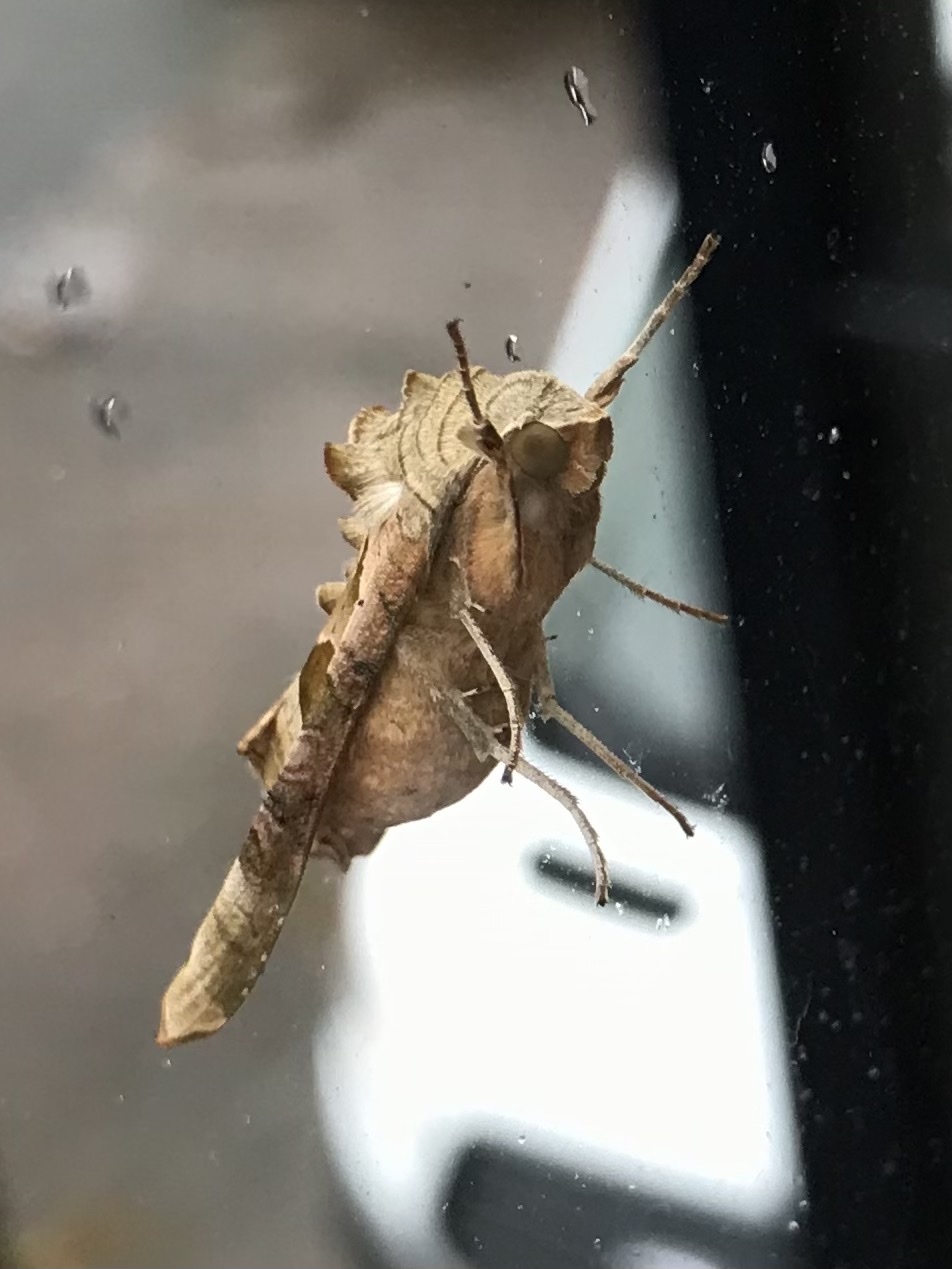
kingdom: Animalia
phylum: Arthropoda
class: Insecta
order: Lepidoptera
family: Noctuidae
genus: Phlogophora
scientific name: Phlogophora meticulosa
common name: Angle shades
